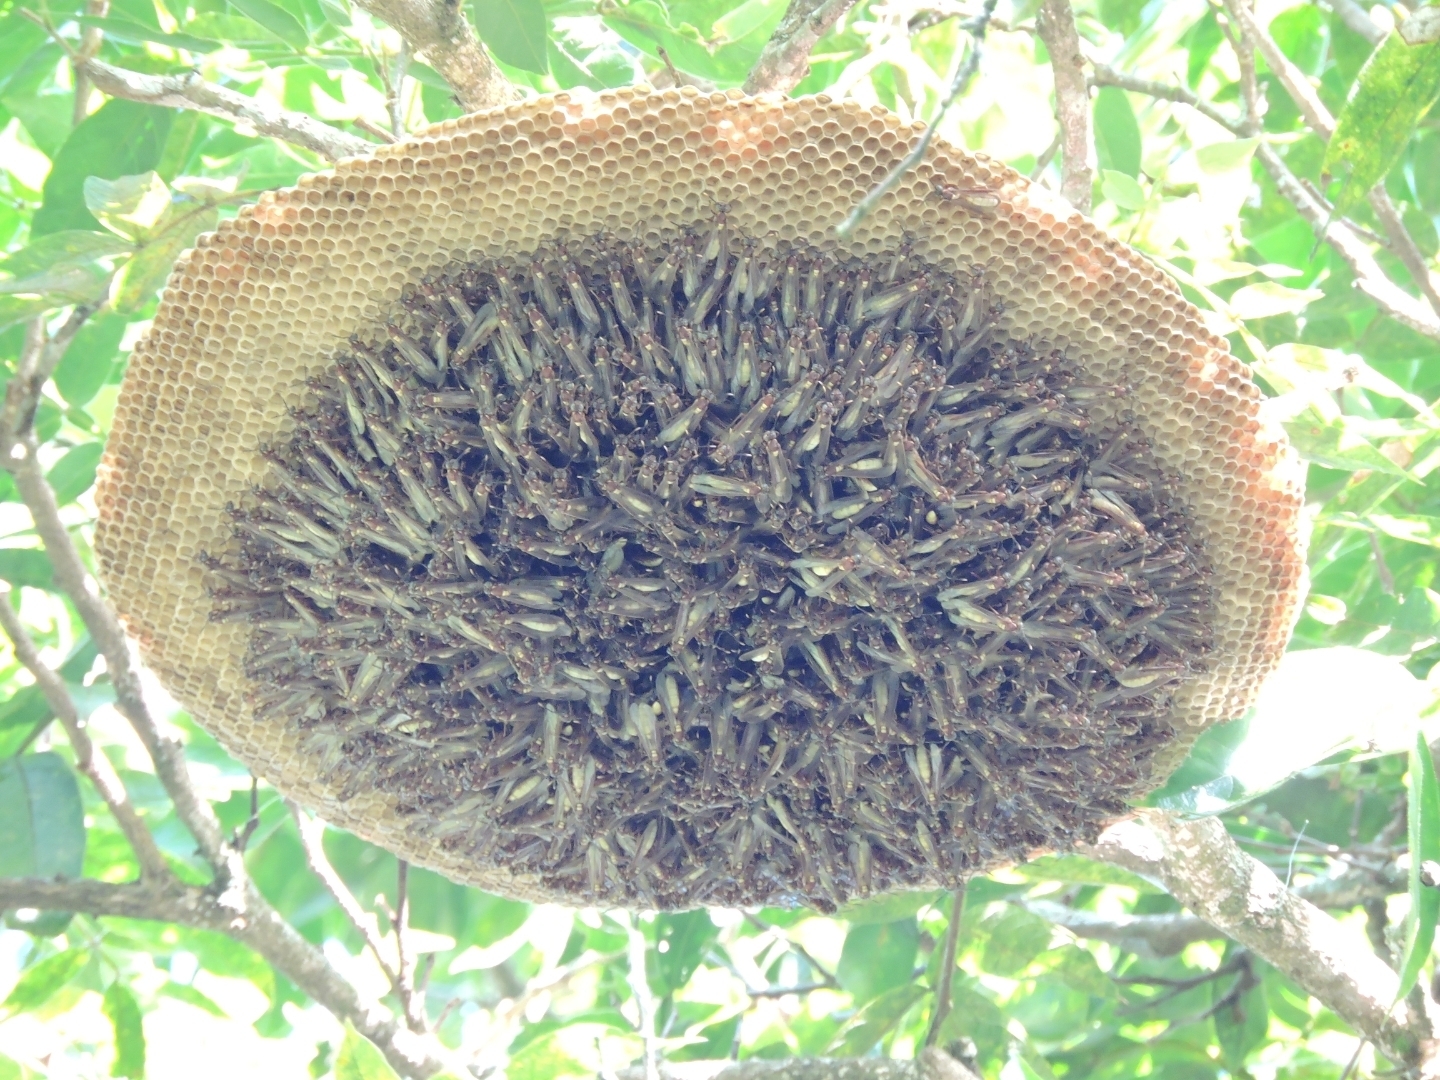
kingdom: Animalia
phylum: Arthropoda
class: Insecta
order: Hymenoptera
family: Vespidae
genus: Apoica
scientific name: Apoica gelida
